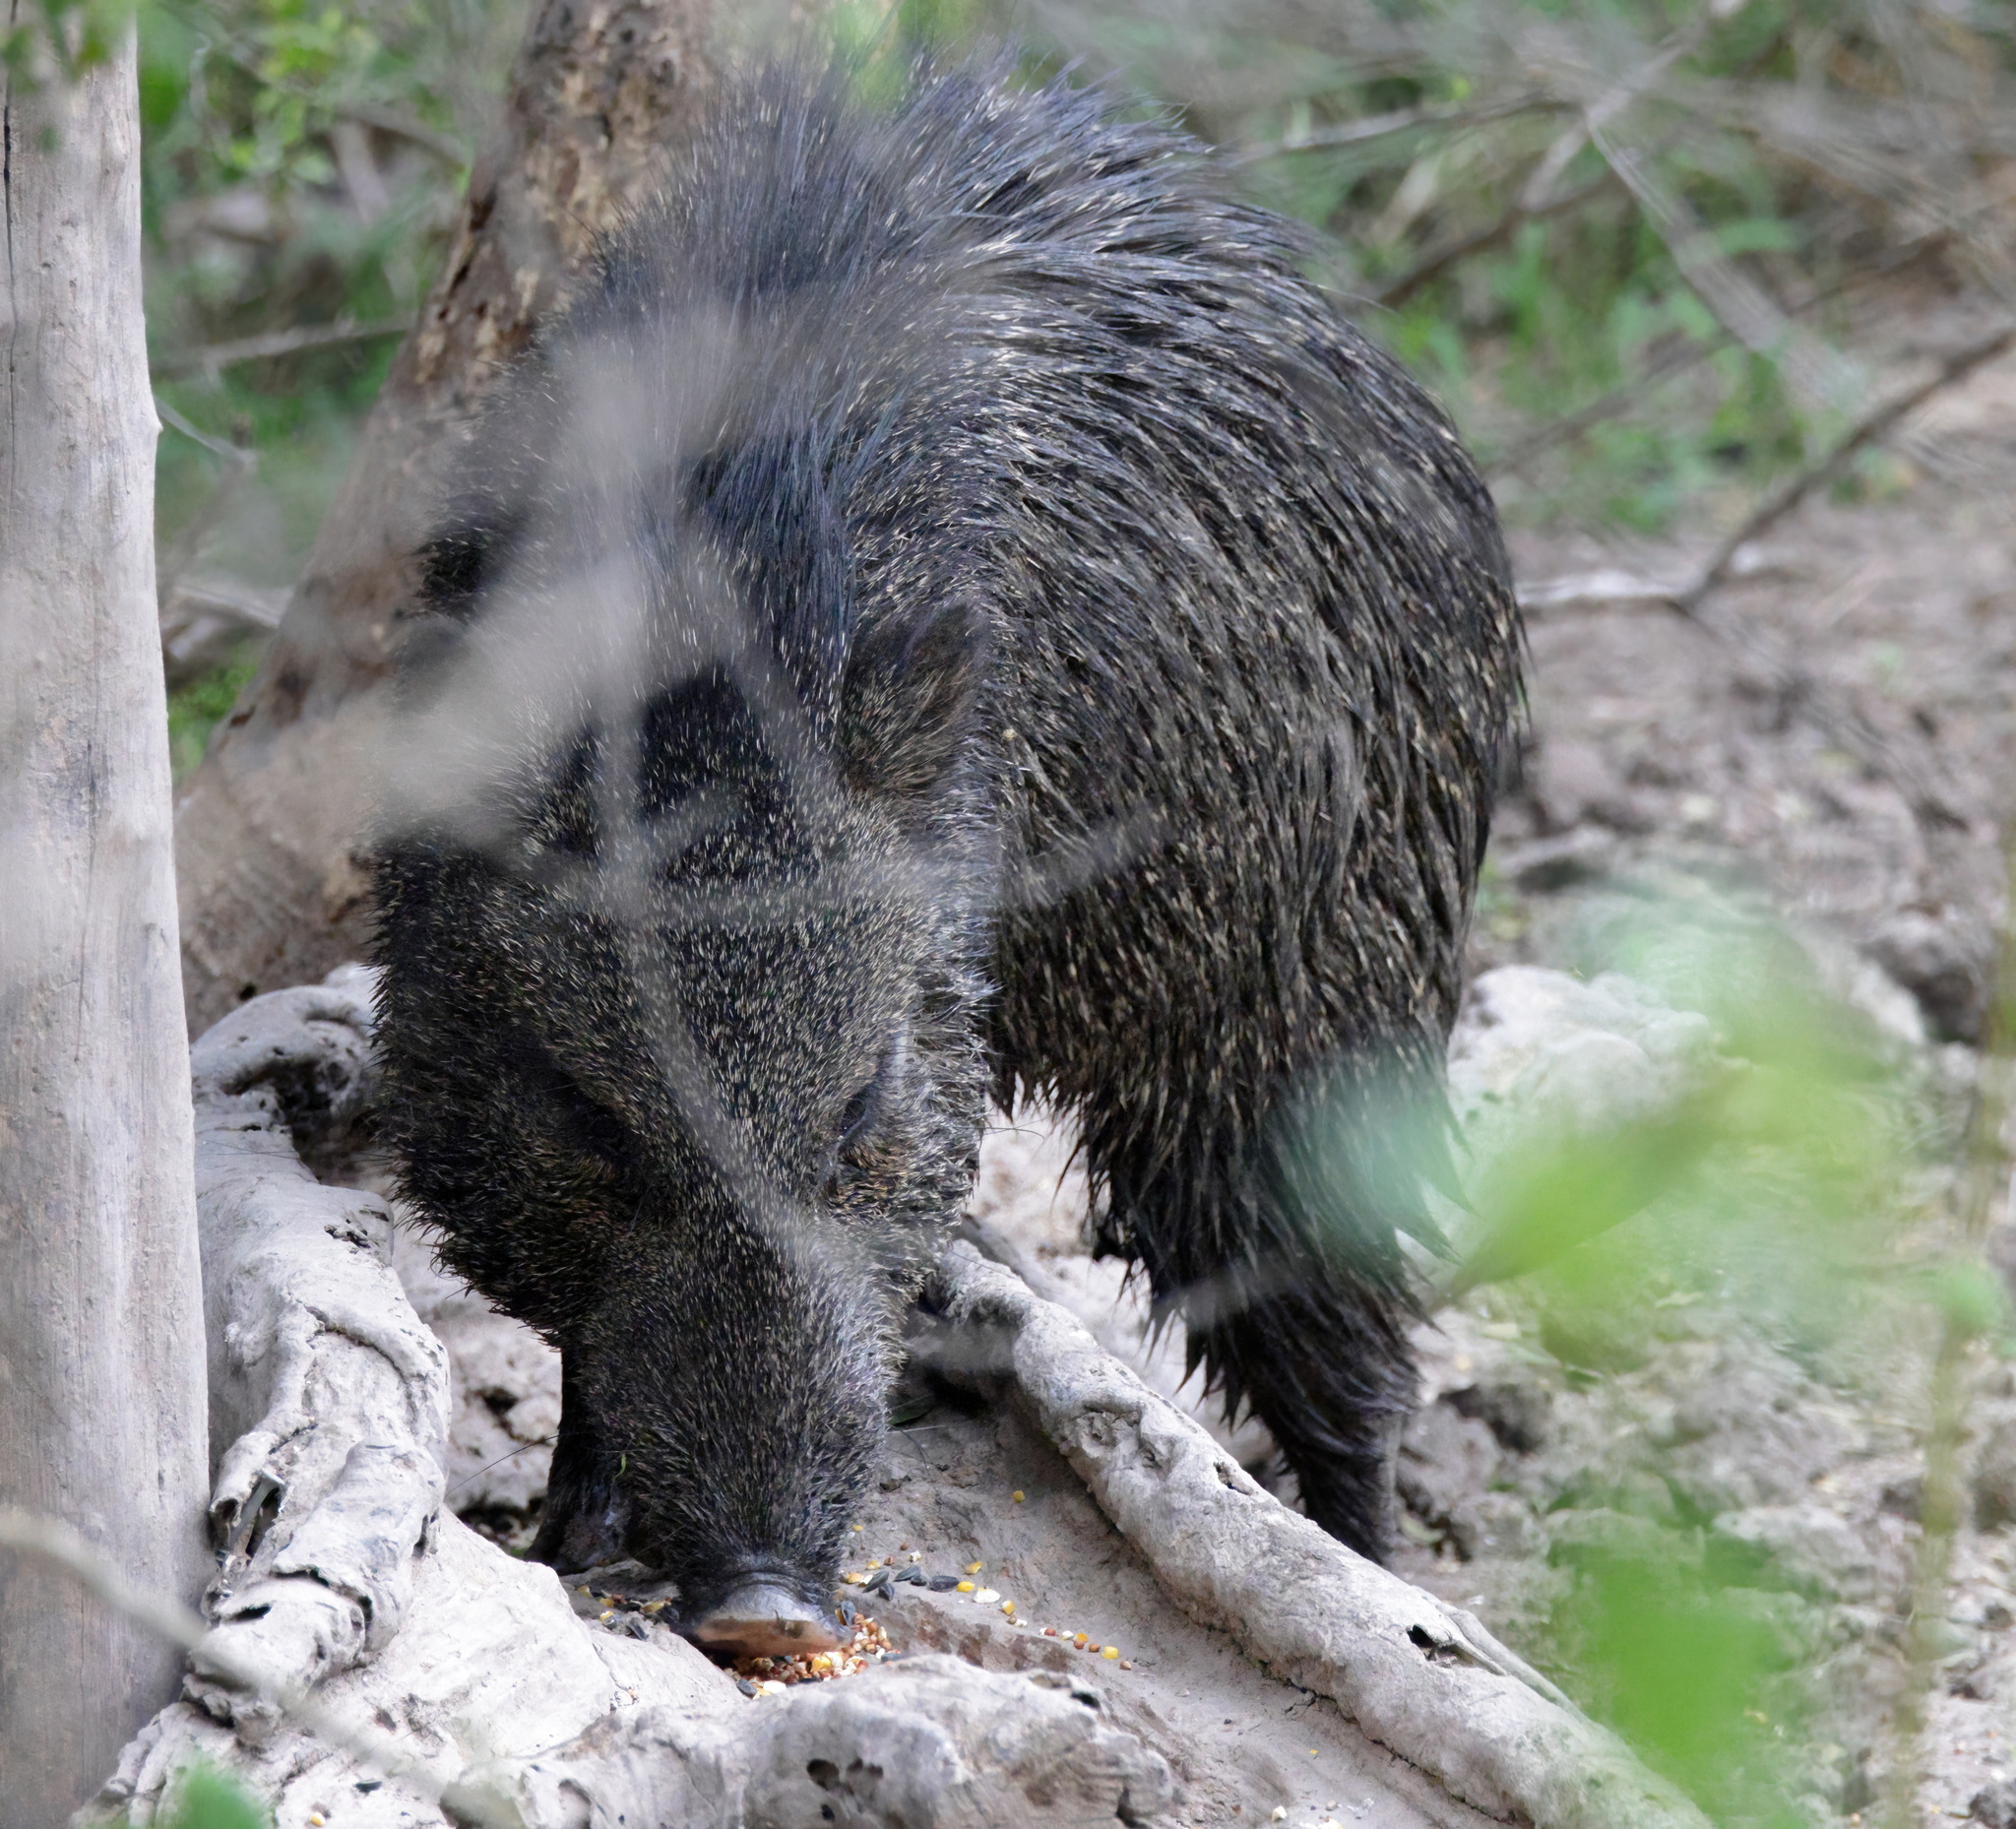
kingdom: Animalia
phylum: Chordata
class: Mammalia
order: Artiodactyla
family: Tayassuidae
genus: Pecari
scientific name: Pecari tajacu
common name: Collared peccary
